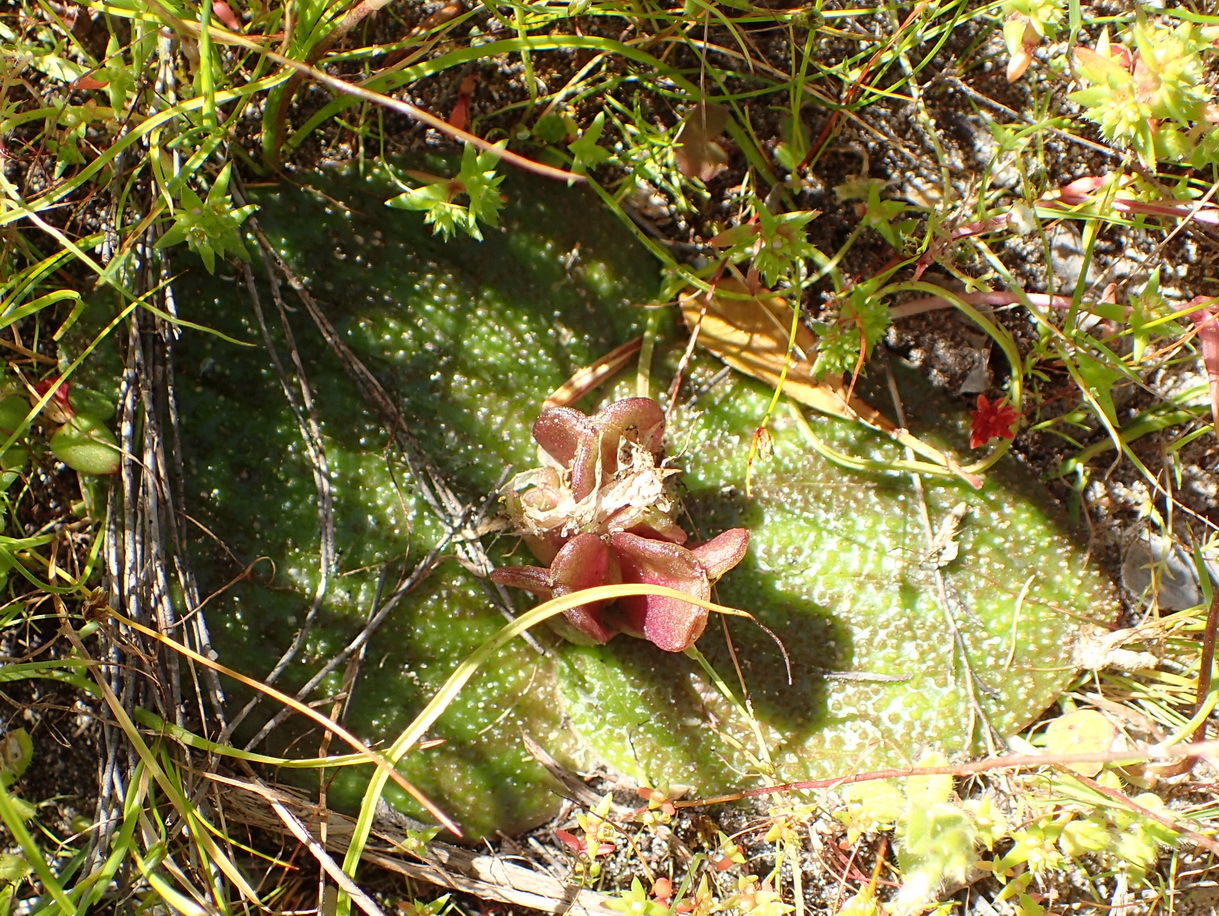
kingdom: Plantae
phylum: Tracheophyta
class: Liliopsida
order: Asparagales
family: Asparagaceae
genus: Massonia
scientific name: Massonia longipes
